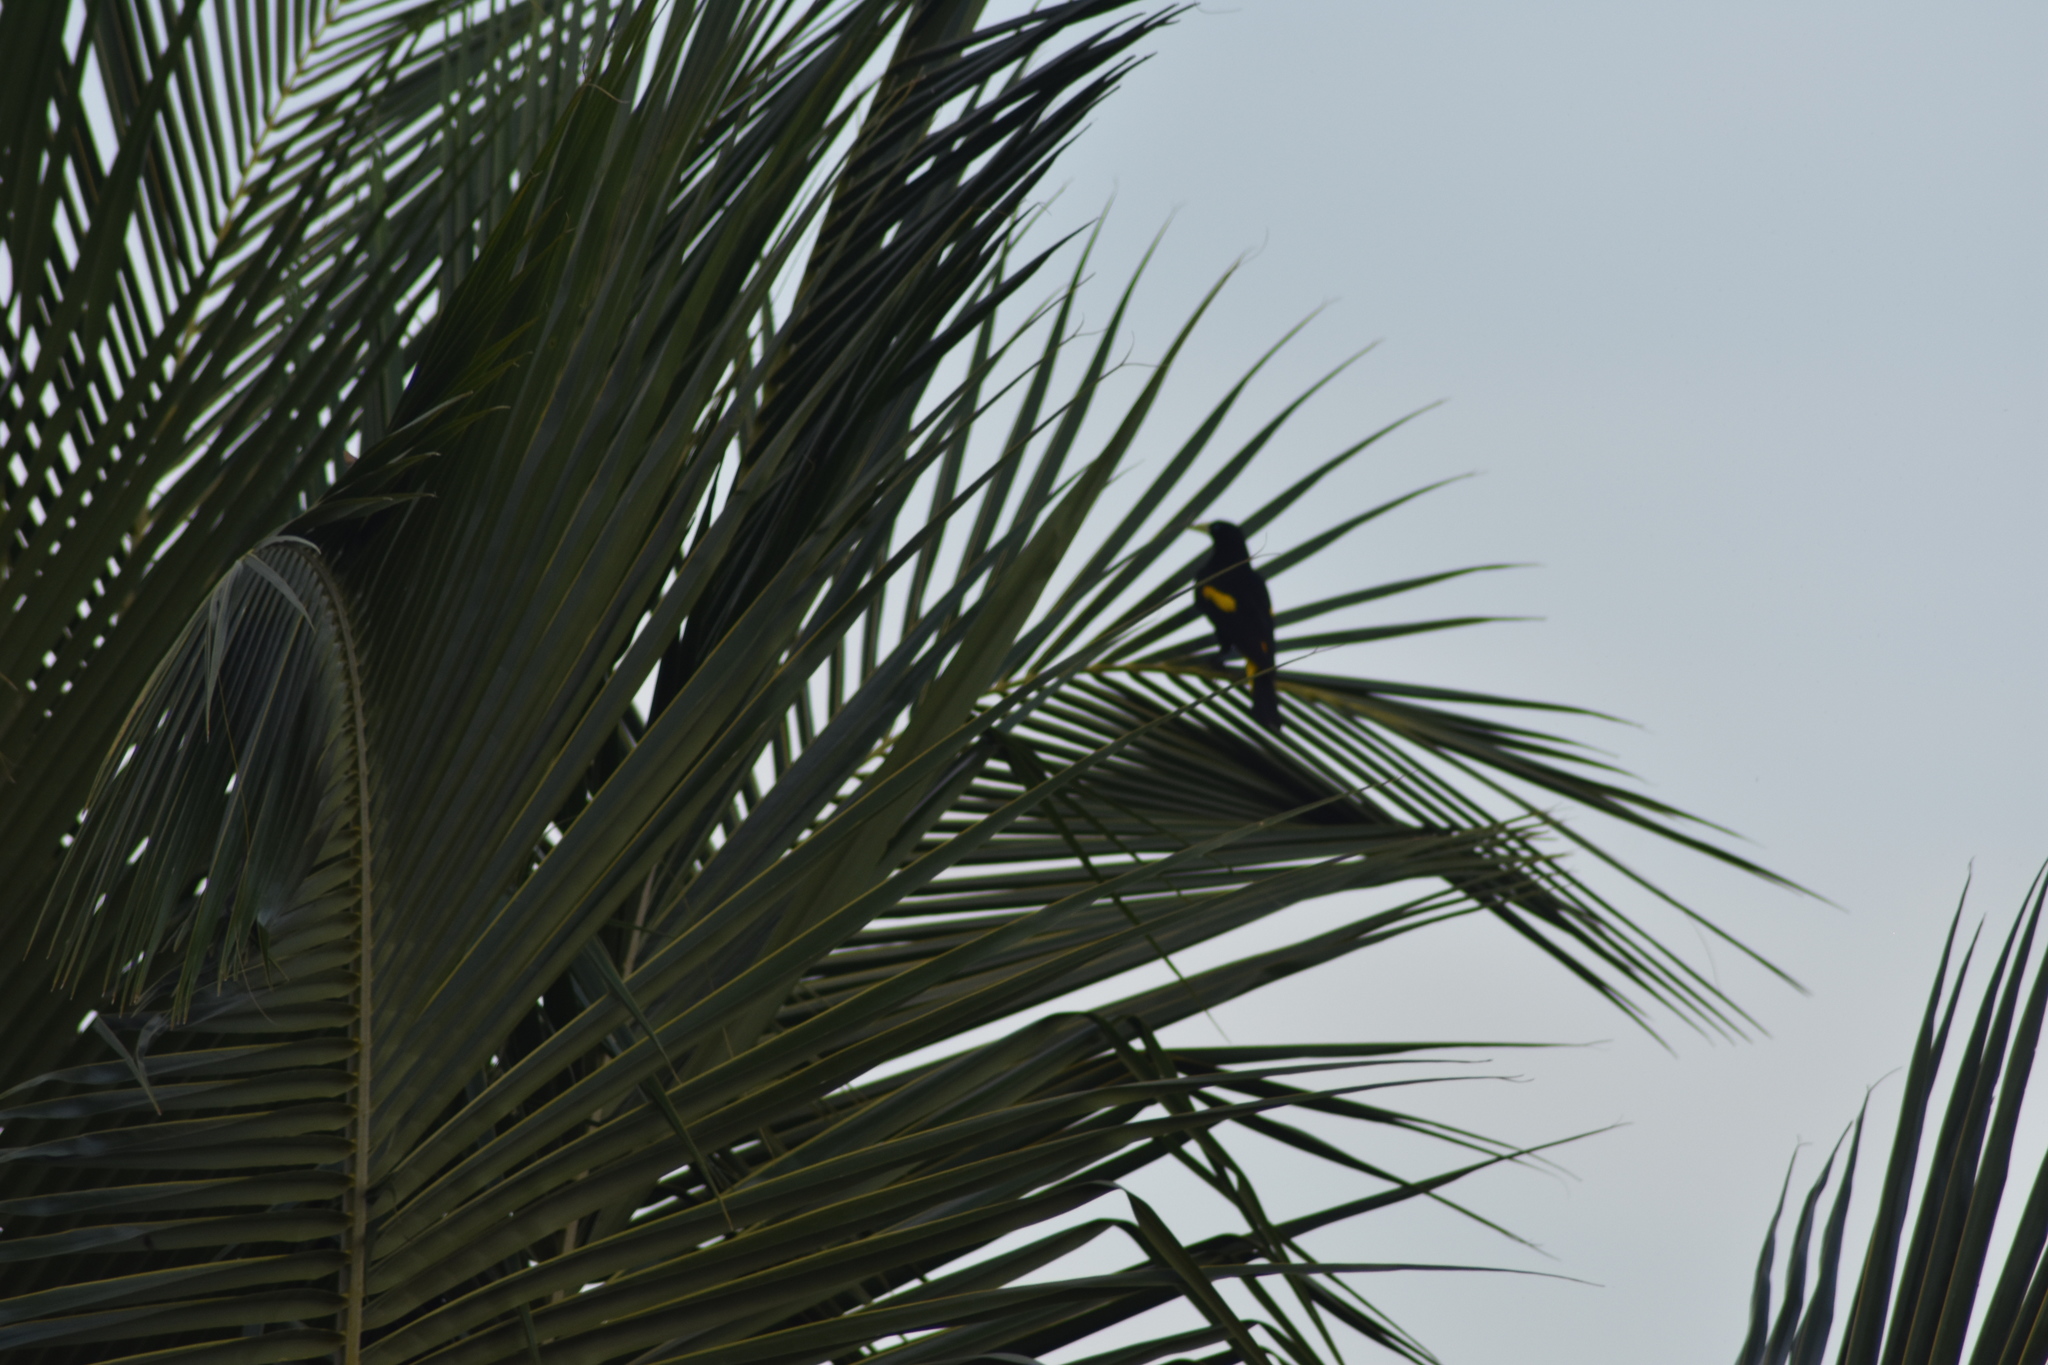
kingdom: Animalia
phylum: Chordata
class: Aves
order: Passeriformes
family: Icteridae
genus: Cacicus
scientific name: Cacicus cela
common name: Yellow-rumped cacique
